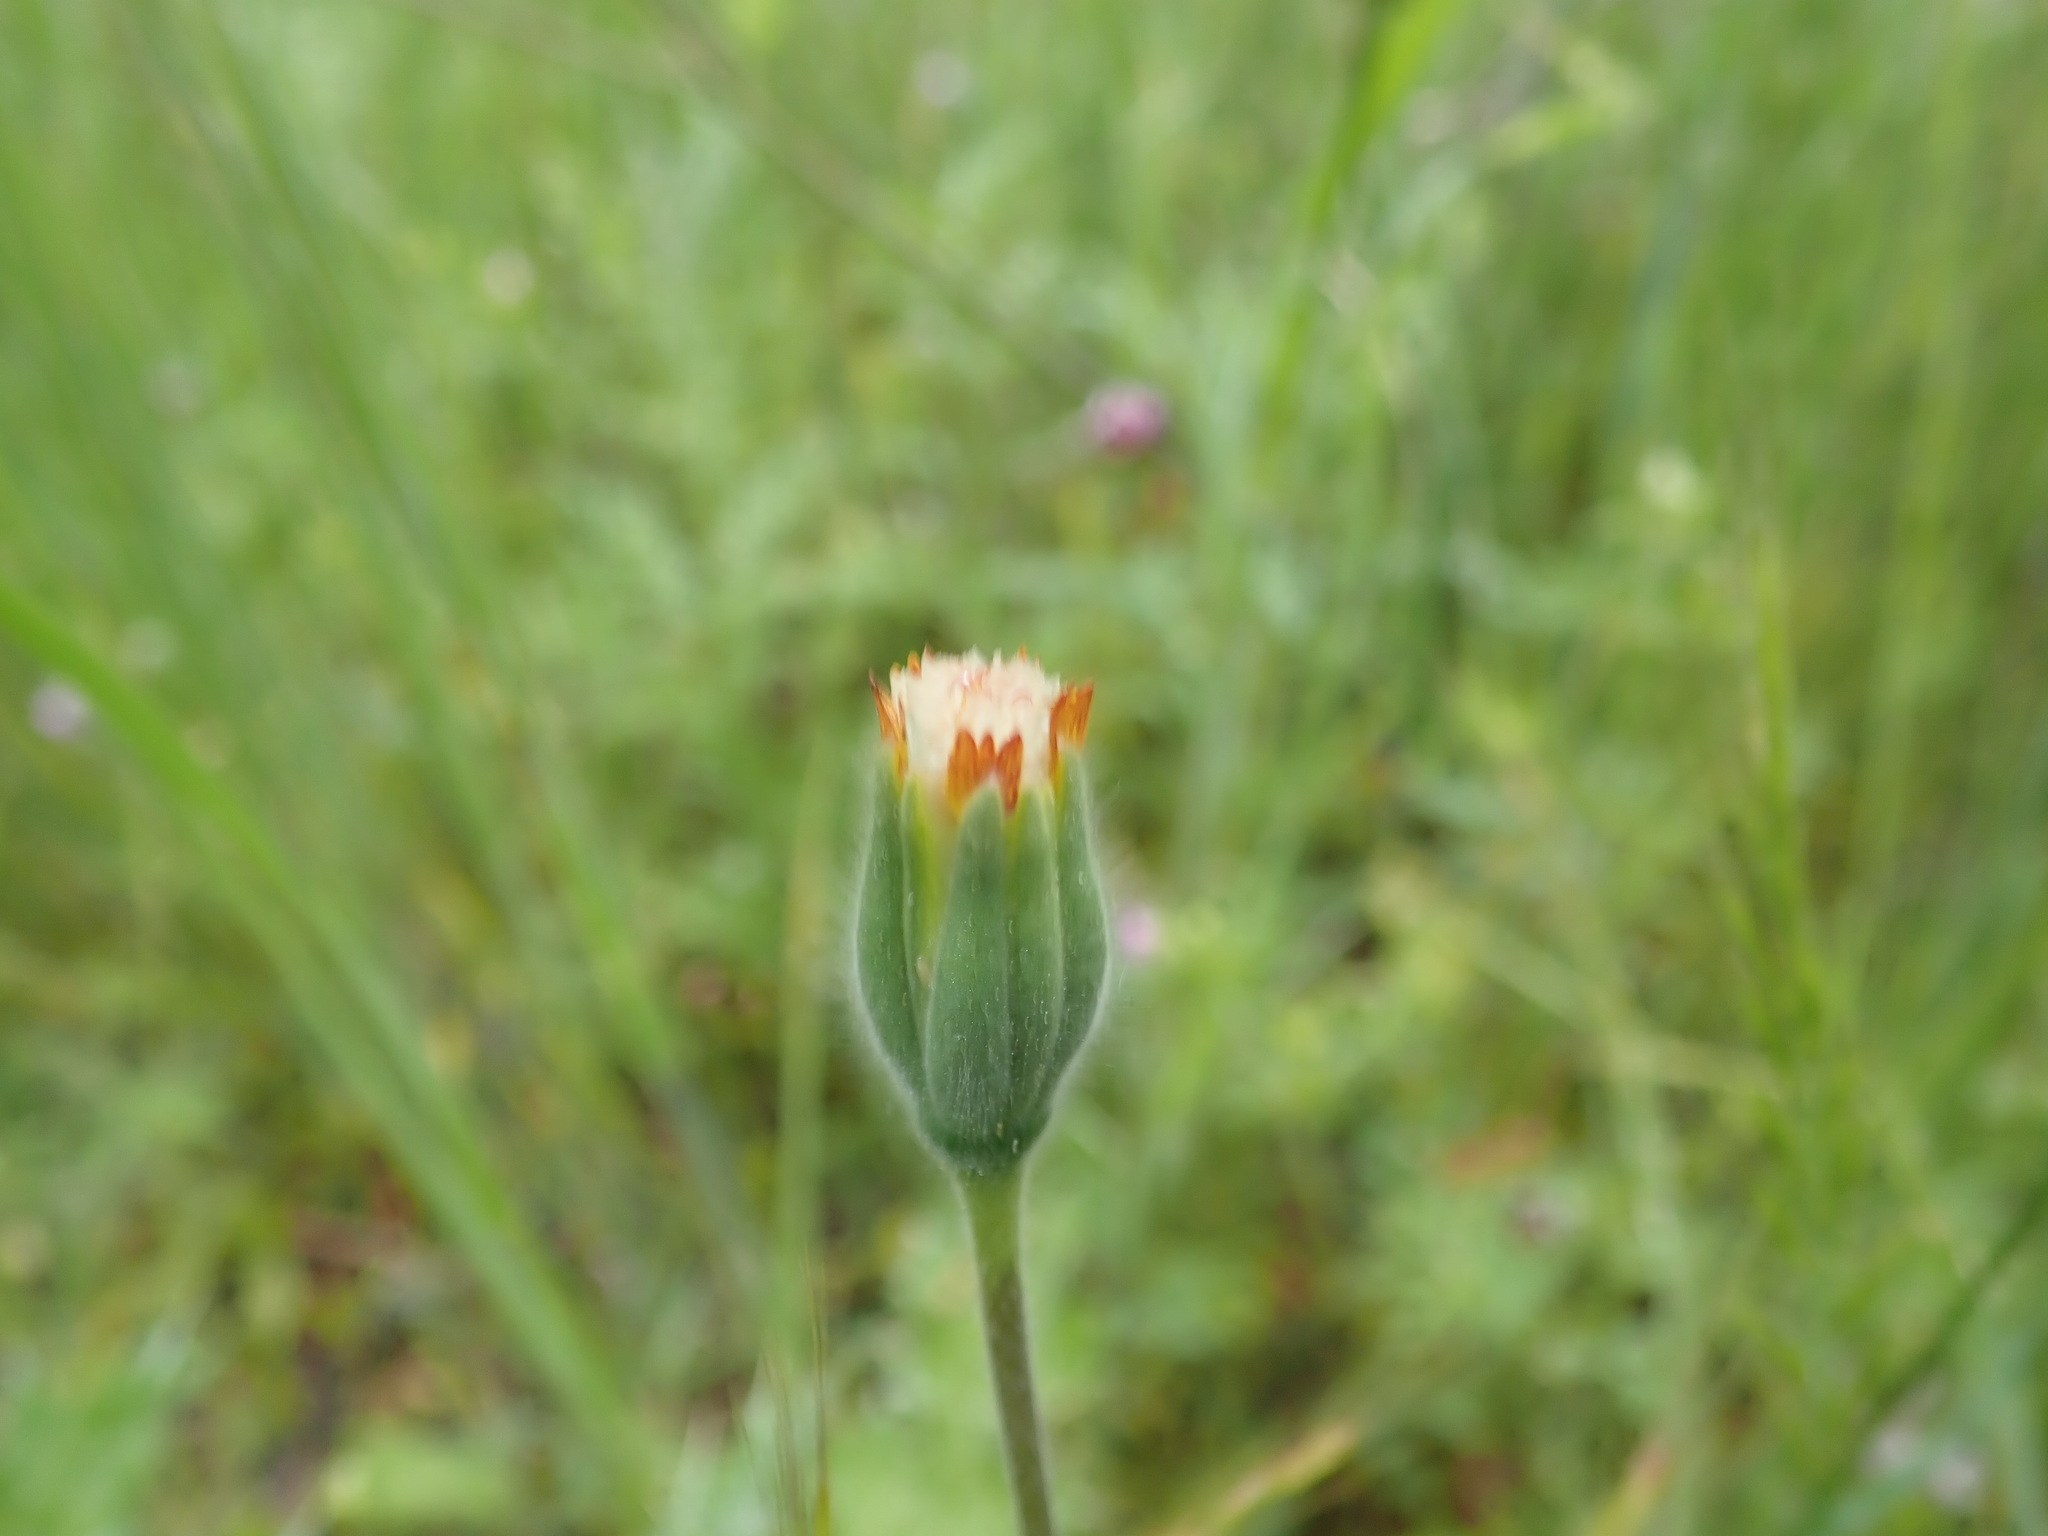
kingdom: Plantae
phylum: Tracheophyta
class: Magnoliopsida
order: Asterales
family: Asteraceae
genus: Achyrachaena
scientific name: Achyrachaena mollis
